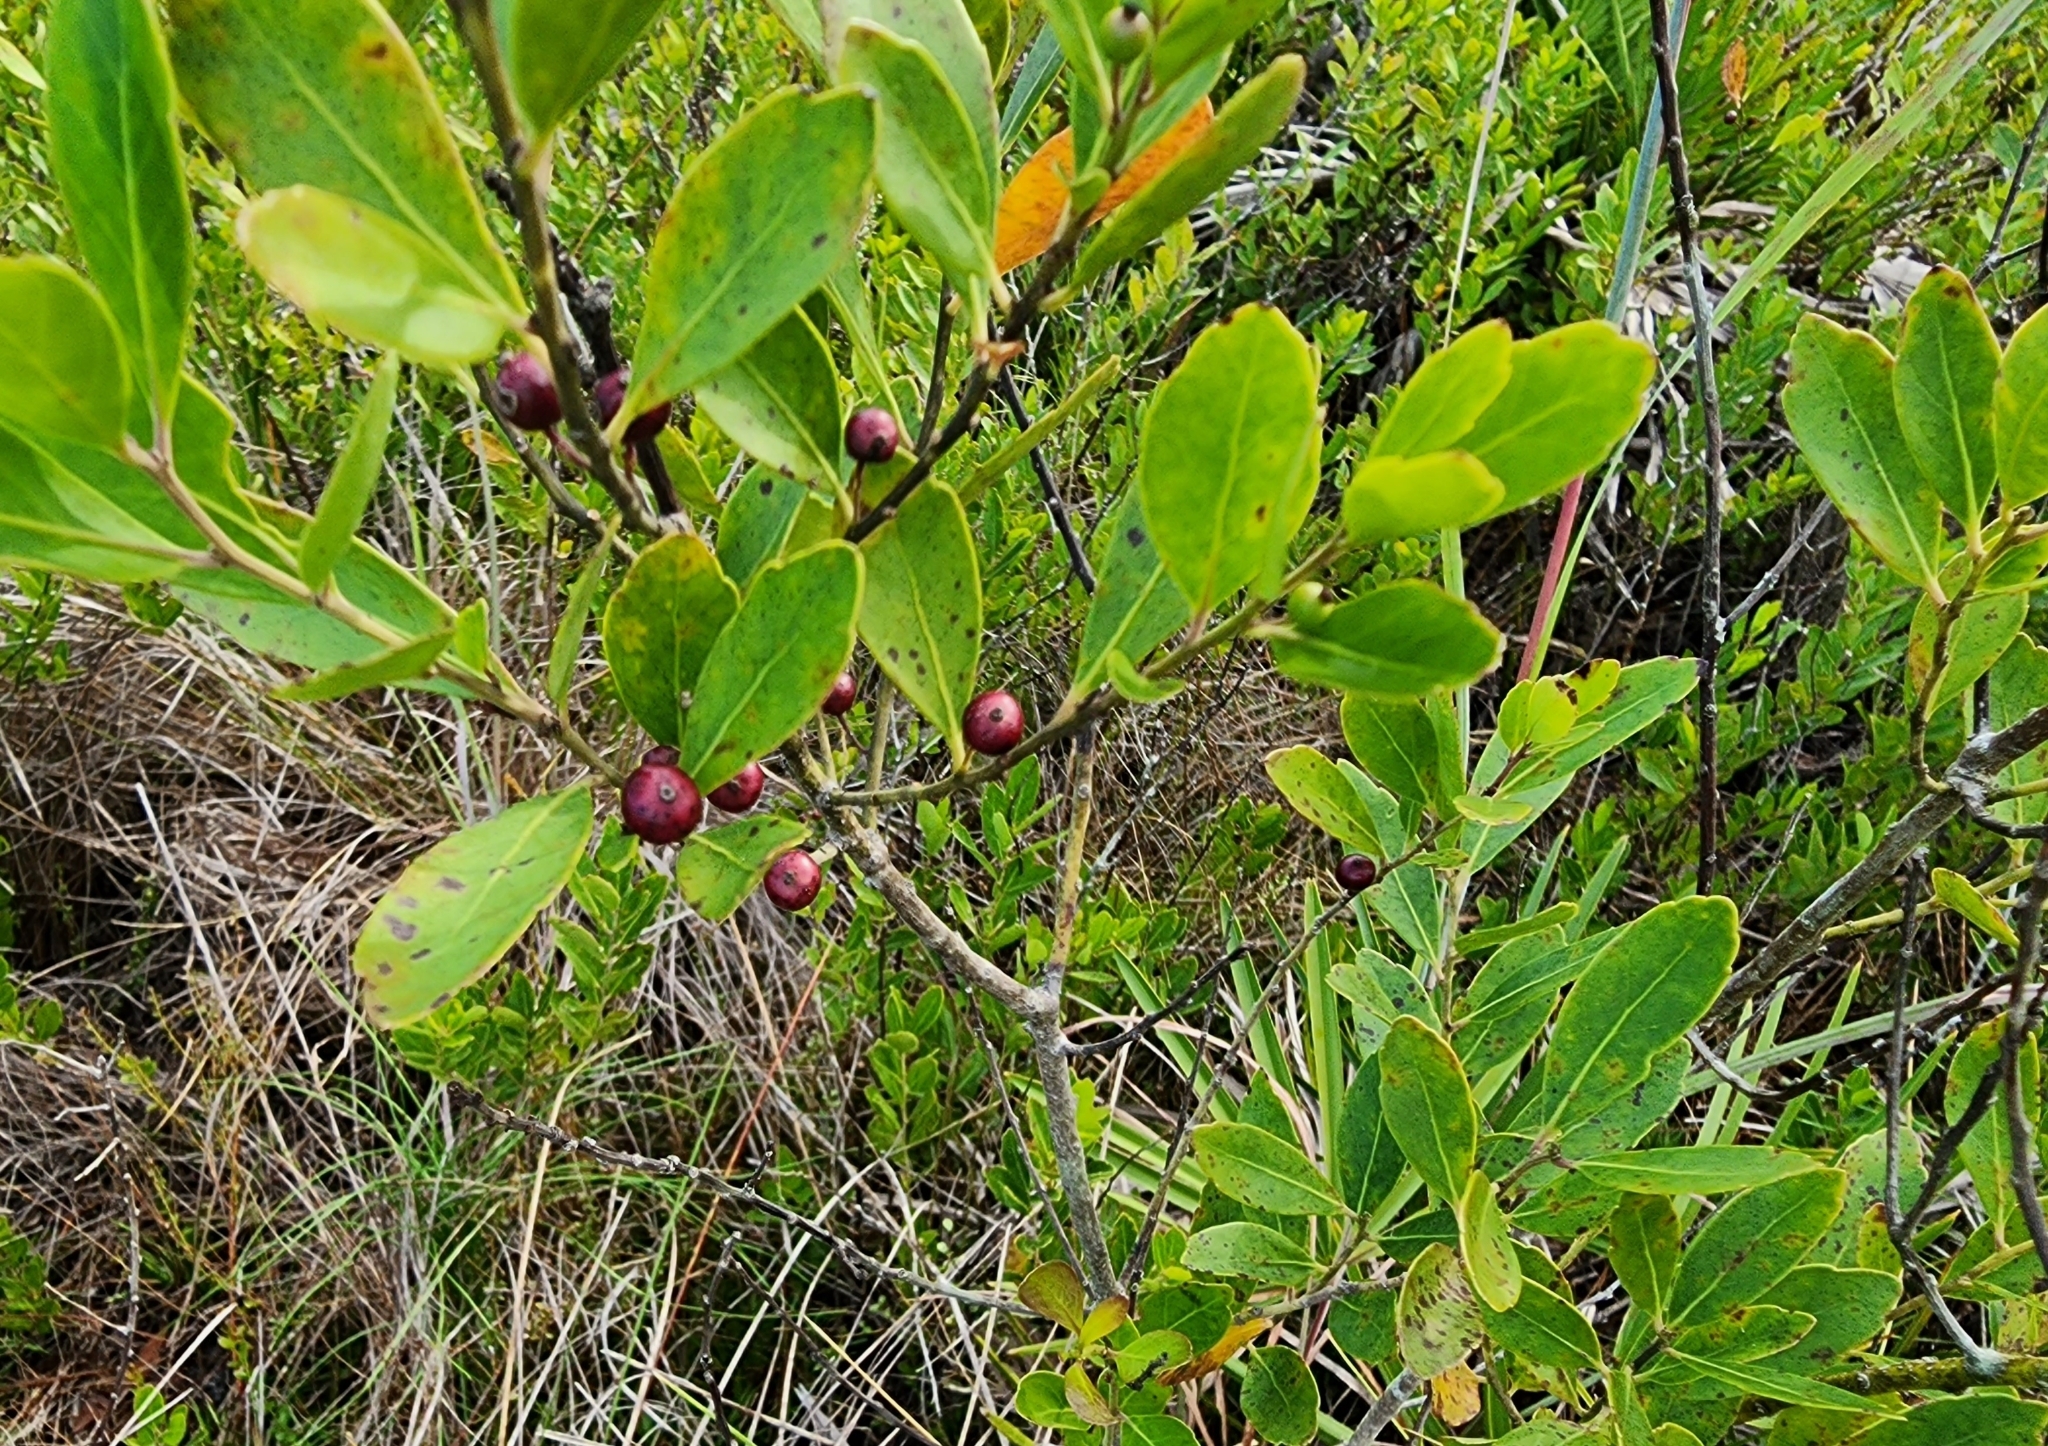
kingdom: Plantae
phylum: Tracheophyta
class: Magnoliopsida
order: Aquifoliales
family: Aquifoliaceae
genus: Ilex
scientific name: Ilex glabra
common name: Bitter gallberry
